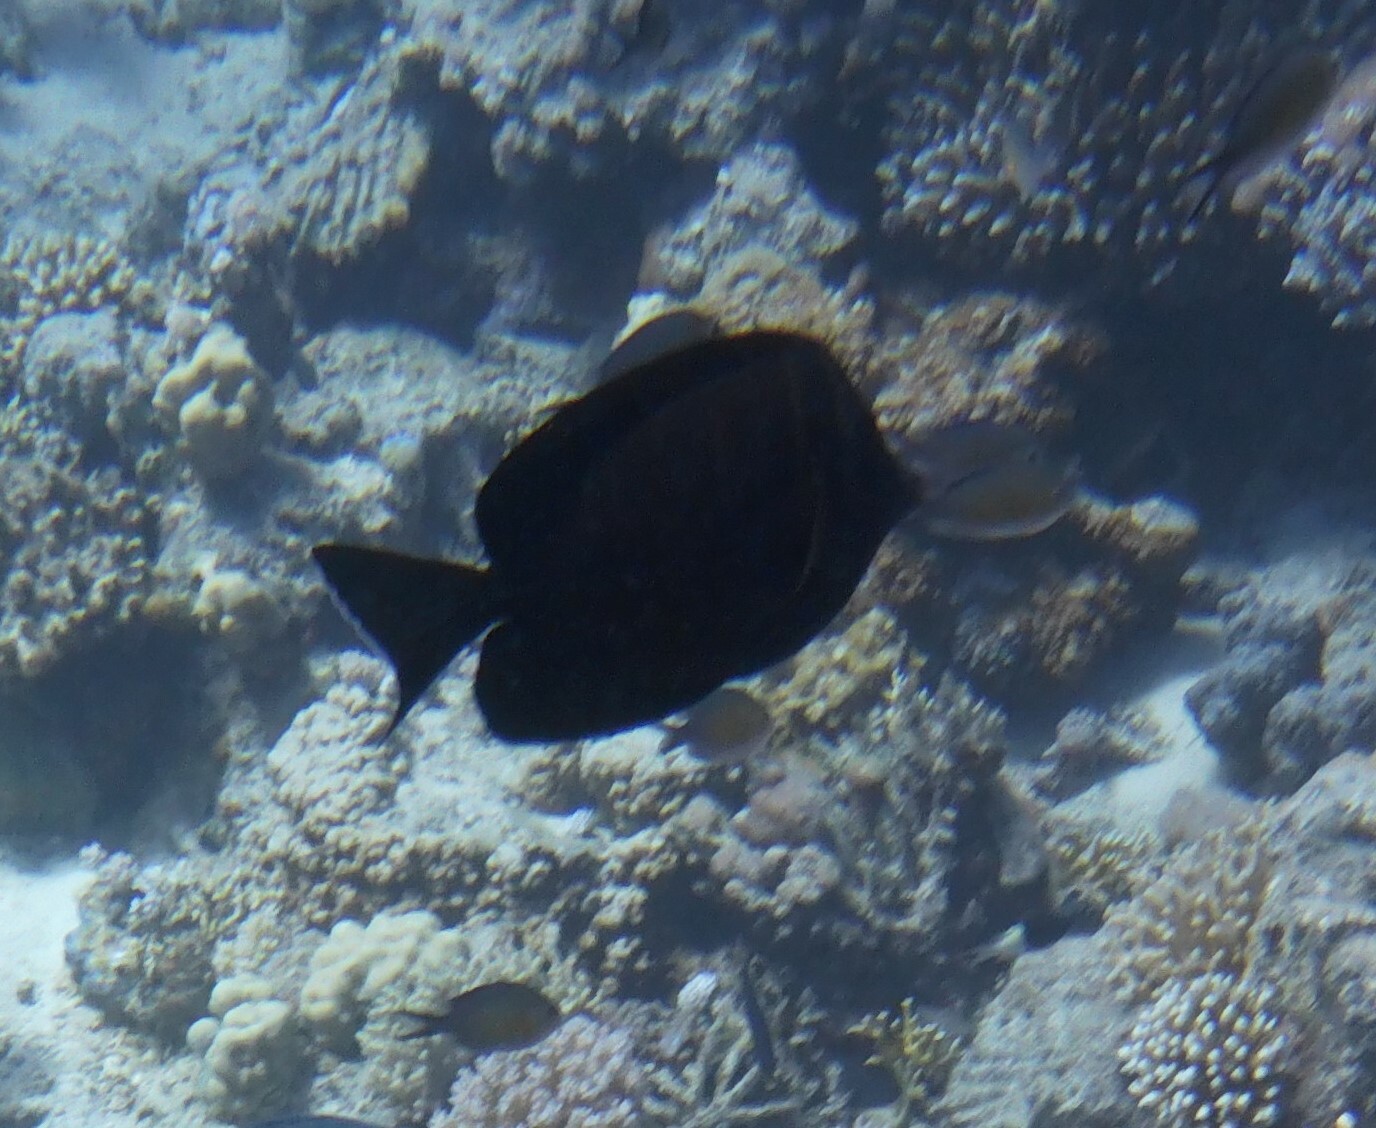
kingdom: Animalia
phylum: Chordata
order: Perciformes
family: Acanthuridae
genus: Zebrasoma
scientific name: Zebrasoma desjardinii
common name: Desjardin's sailfin tang
